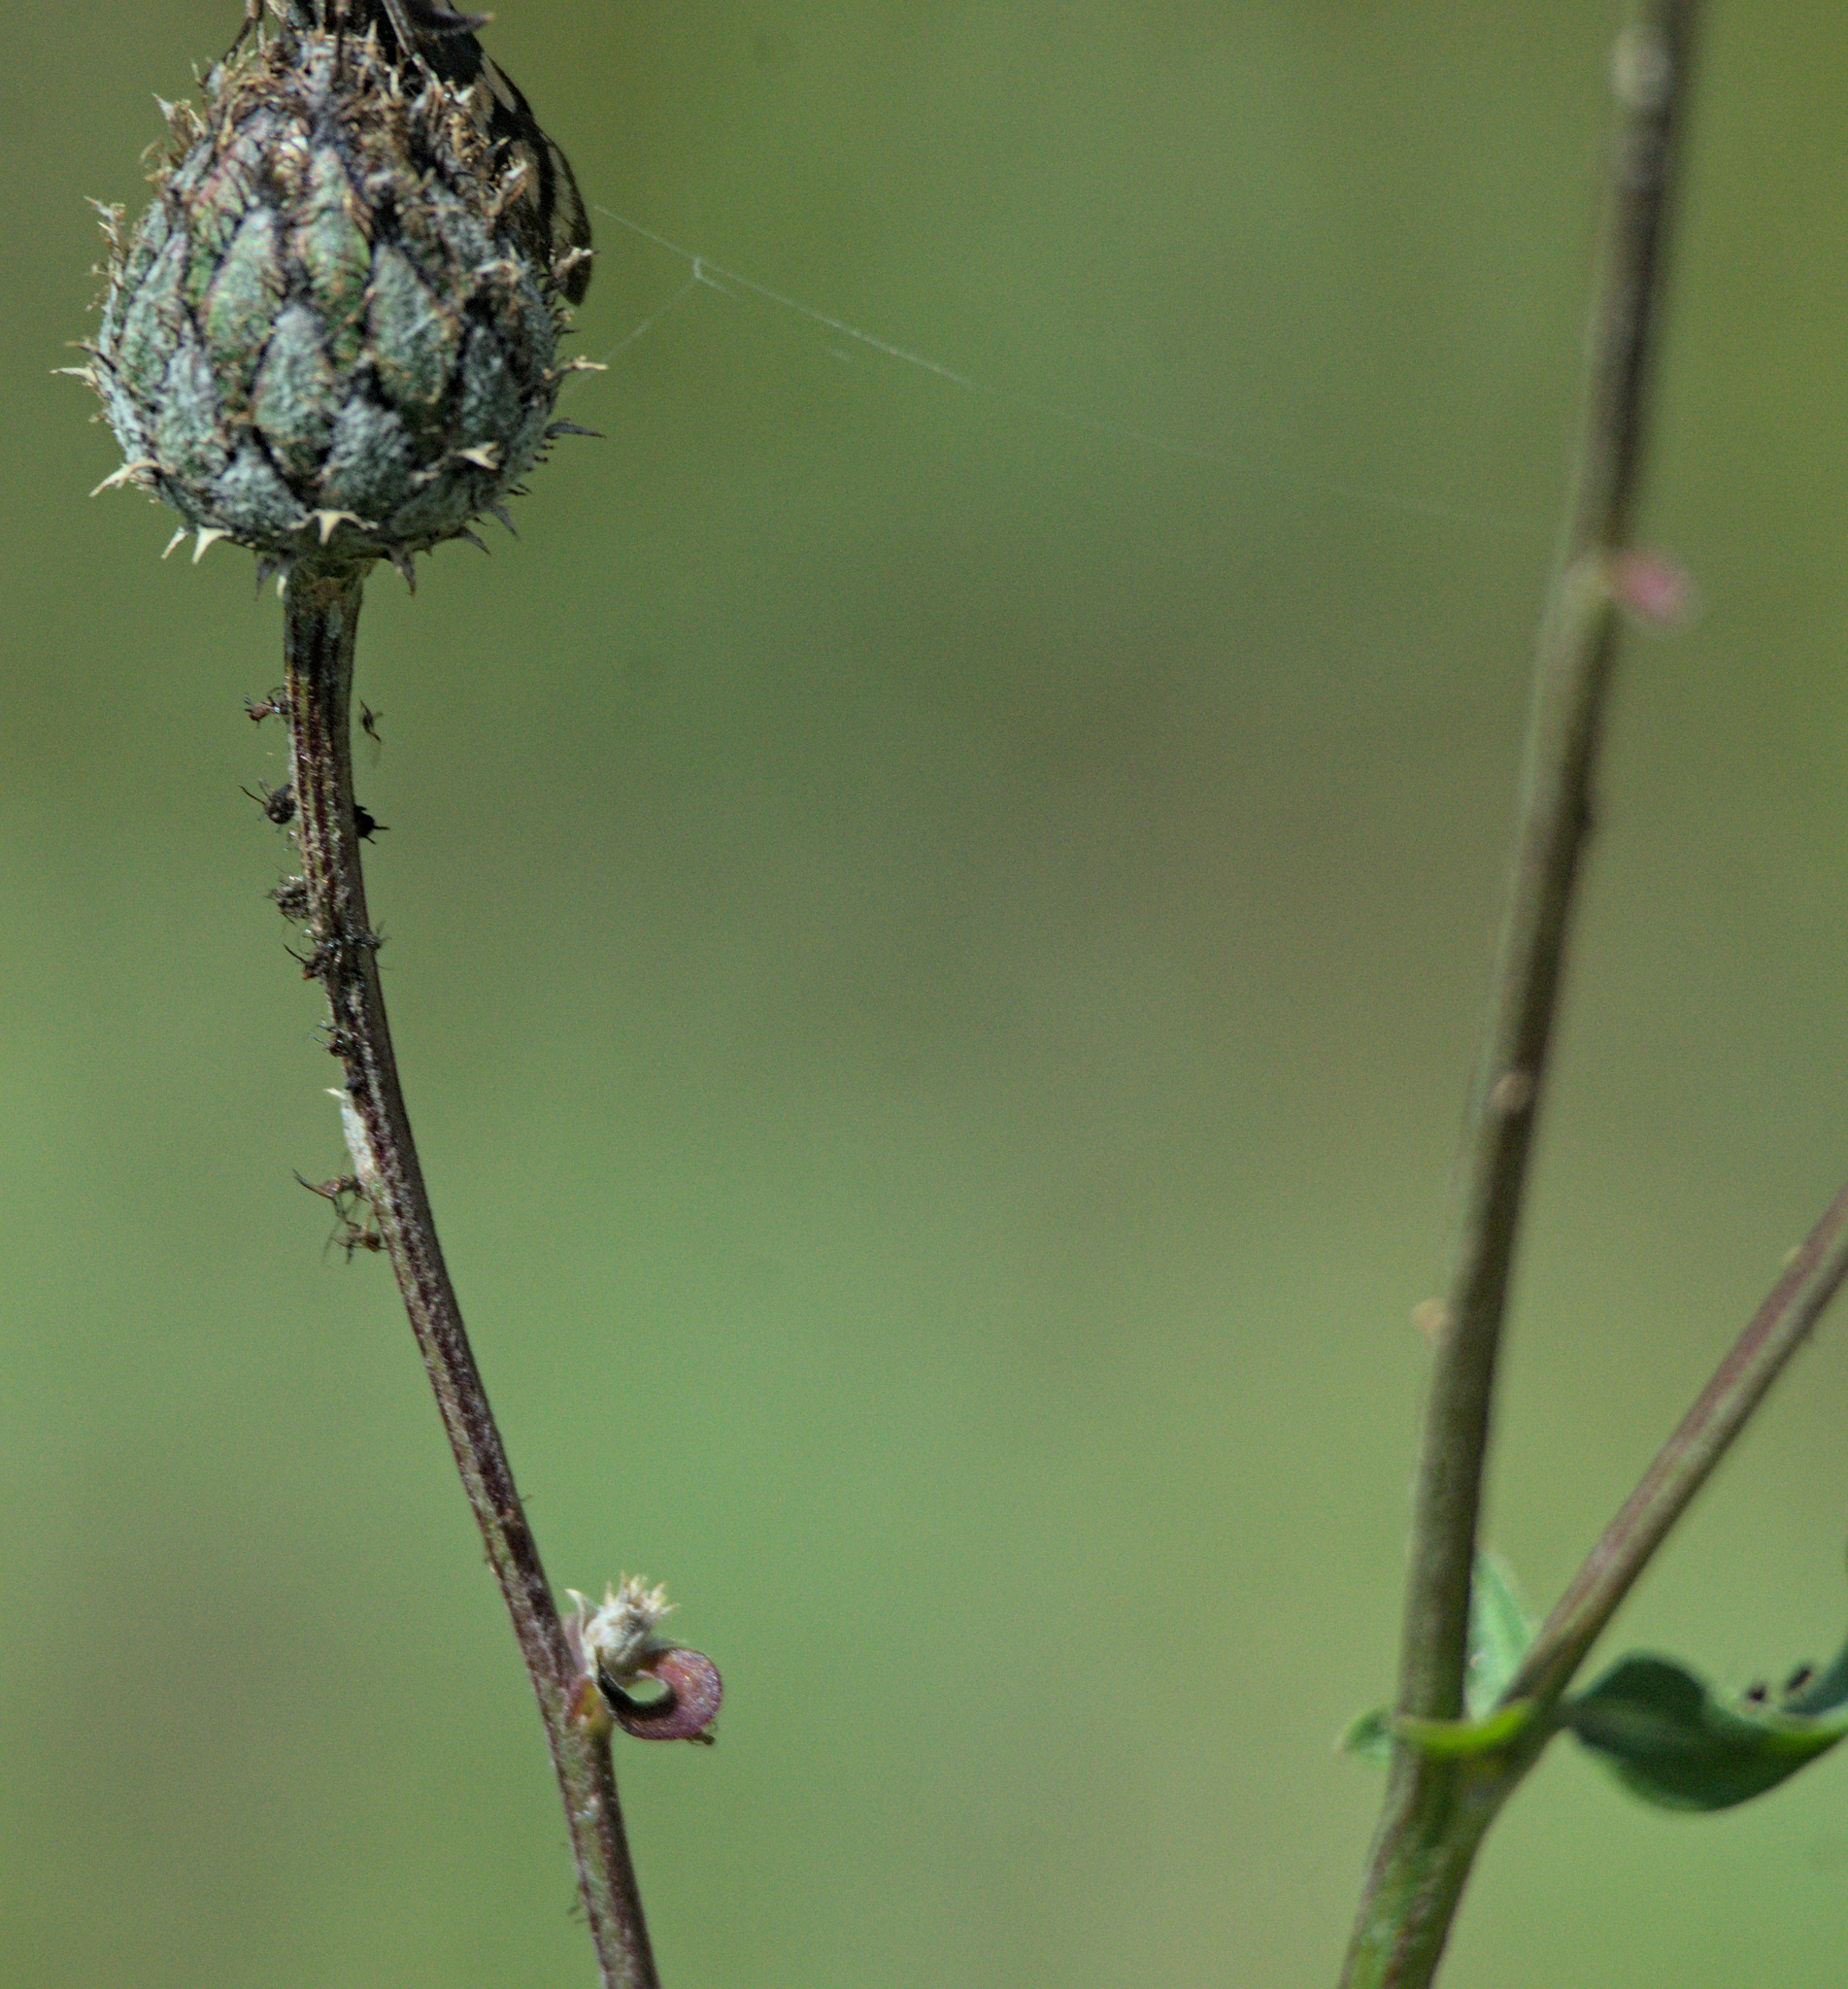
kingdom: Plantae
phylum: Tracheophyta
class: Magnoliopsida
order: Asterales
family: Asteraceae
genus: Centaurea
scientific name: Centaurea scabiosa
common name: Greater knapweed
